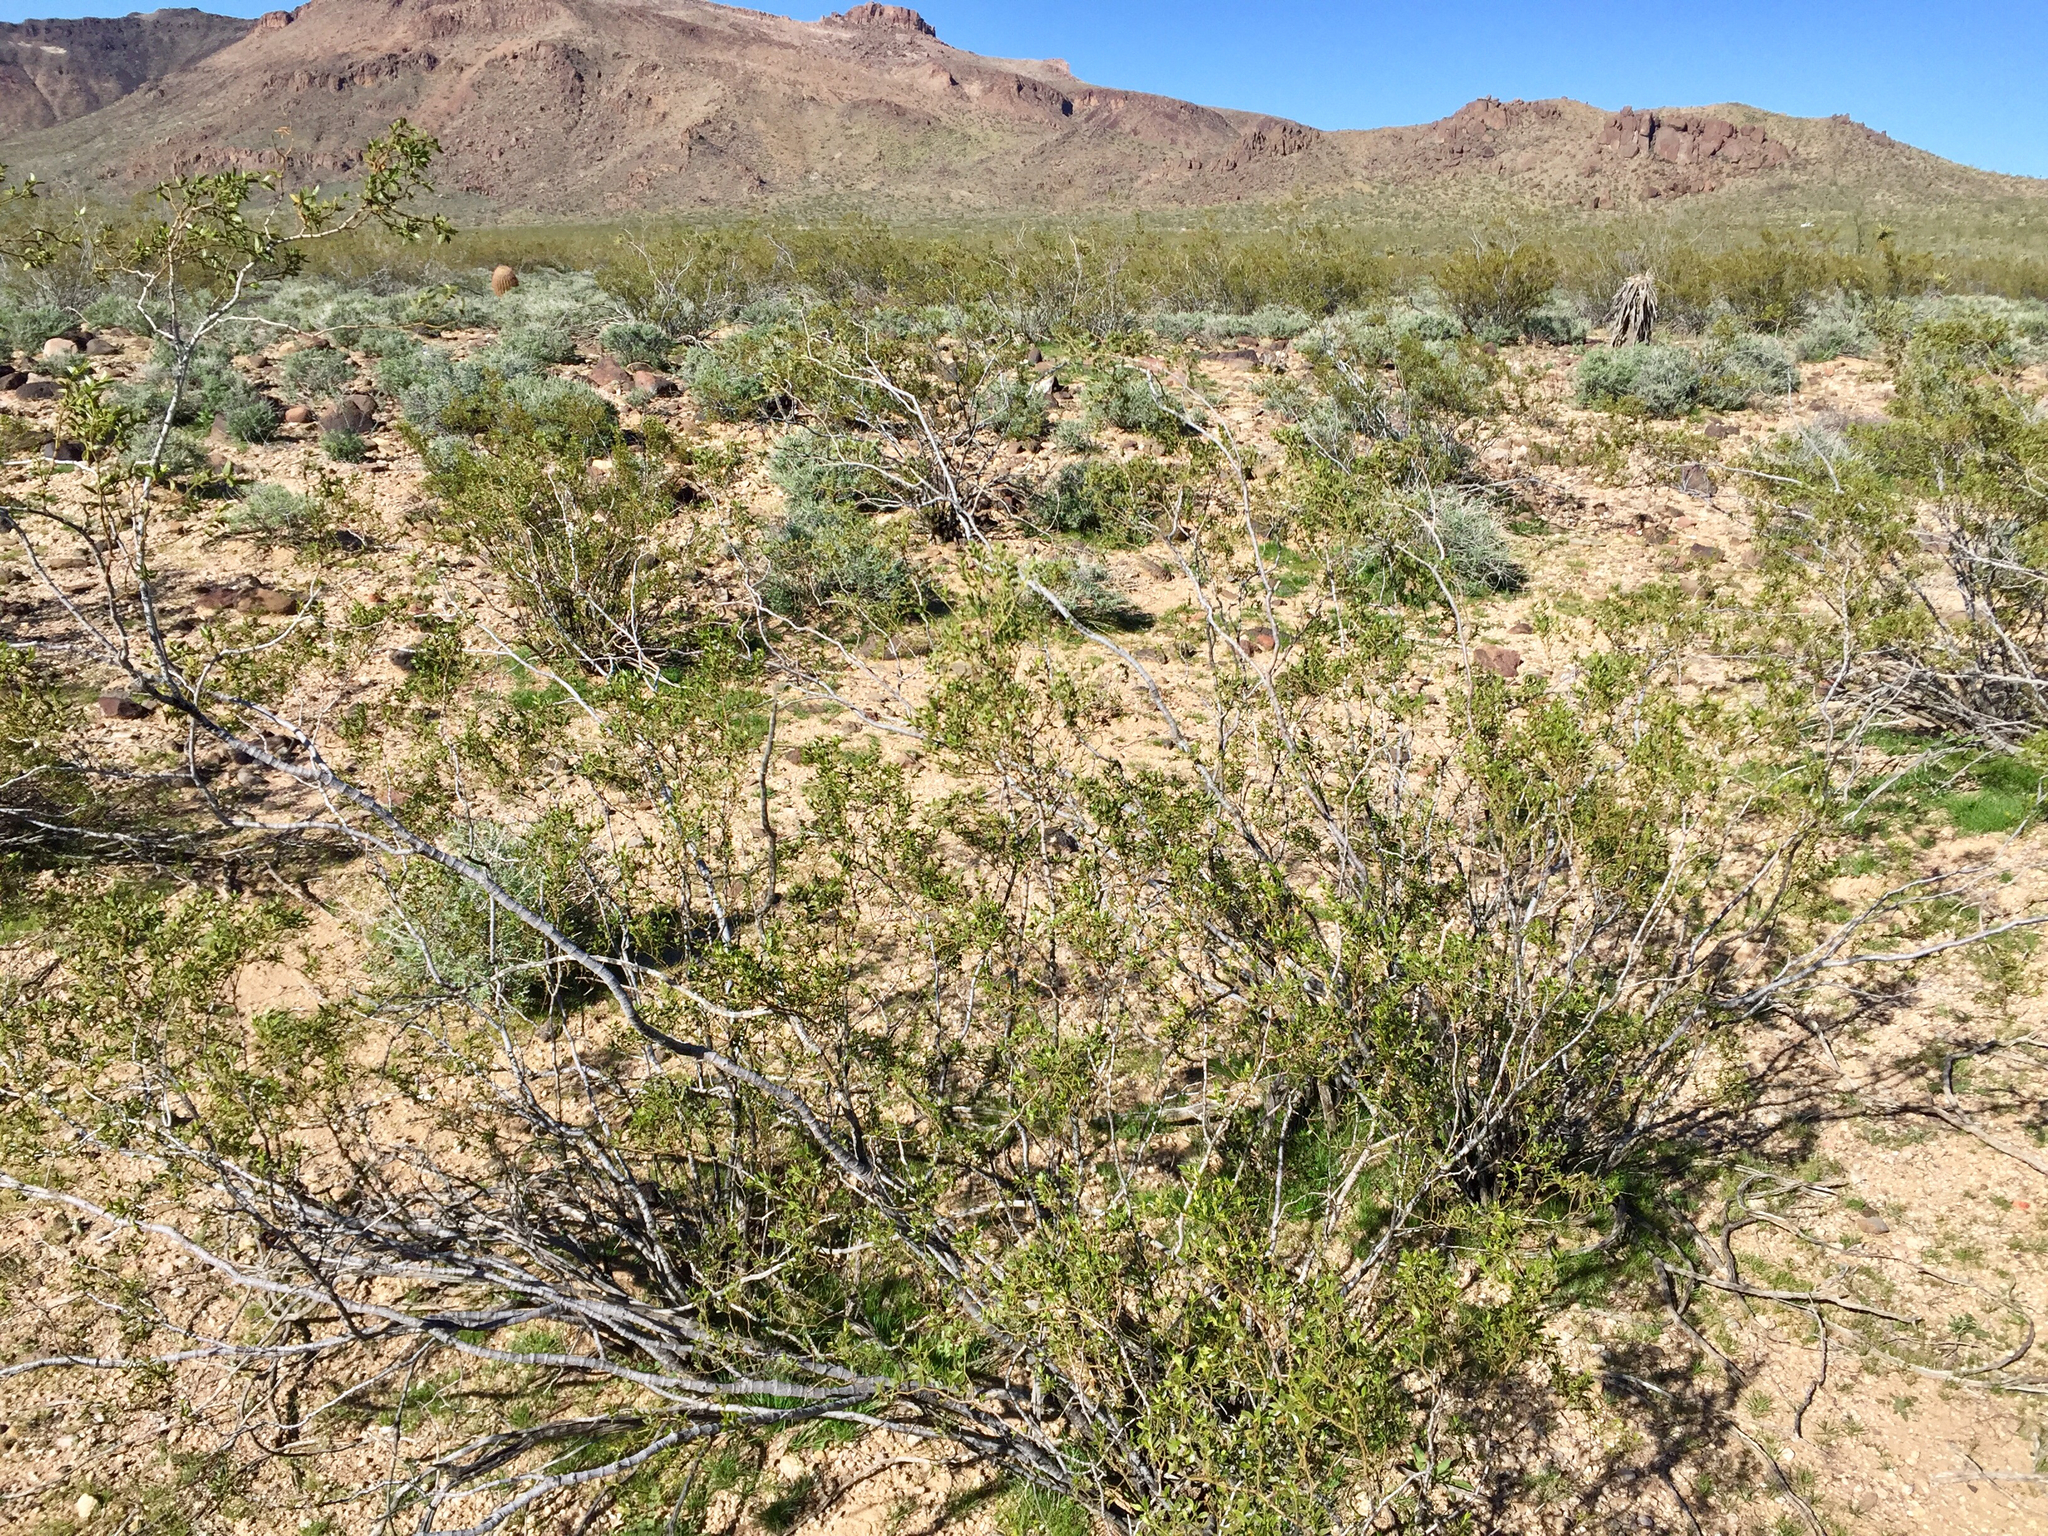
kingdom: Plantae
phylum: Tracheophyta
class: Magnoliopsida
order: Zygophyllales
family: Zygophyllaceae
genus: Larrea
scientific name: Larrea tridentata
